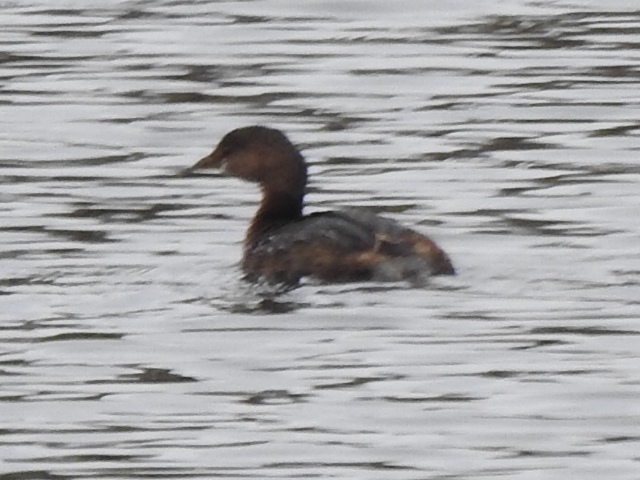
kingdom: Animalia
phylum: Chordata
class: Aves
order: Podicipediformes
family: Podicipedidae
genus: Podilymbus
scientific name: Podilymbus podiceps
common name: Pied-billed grebe
